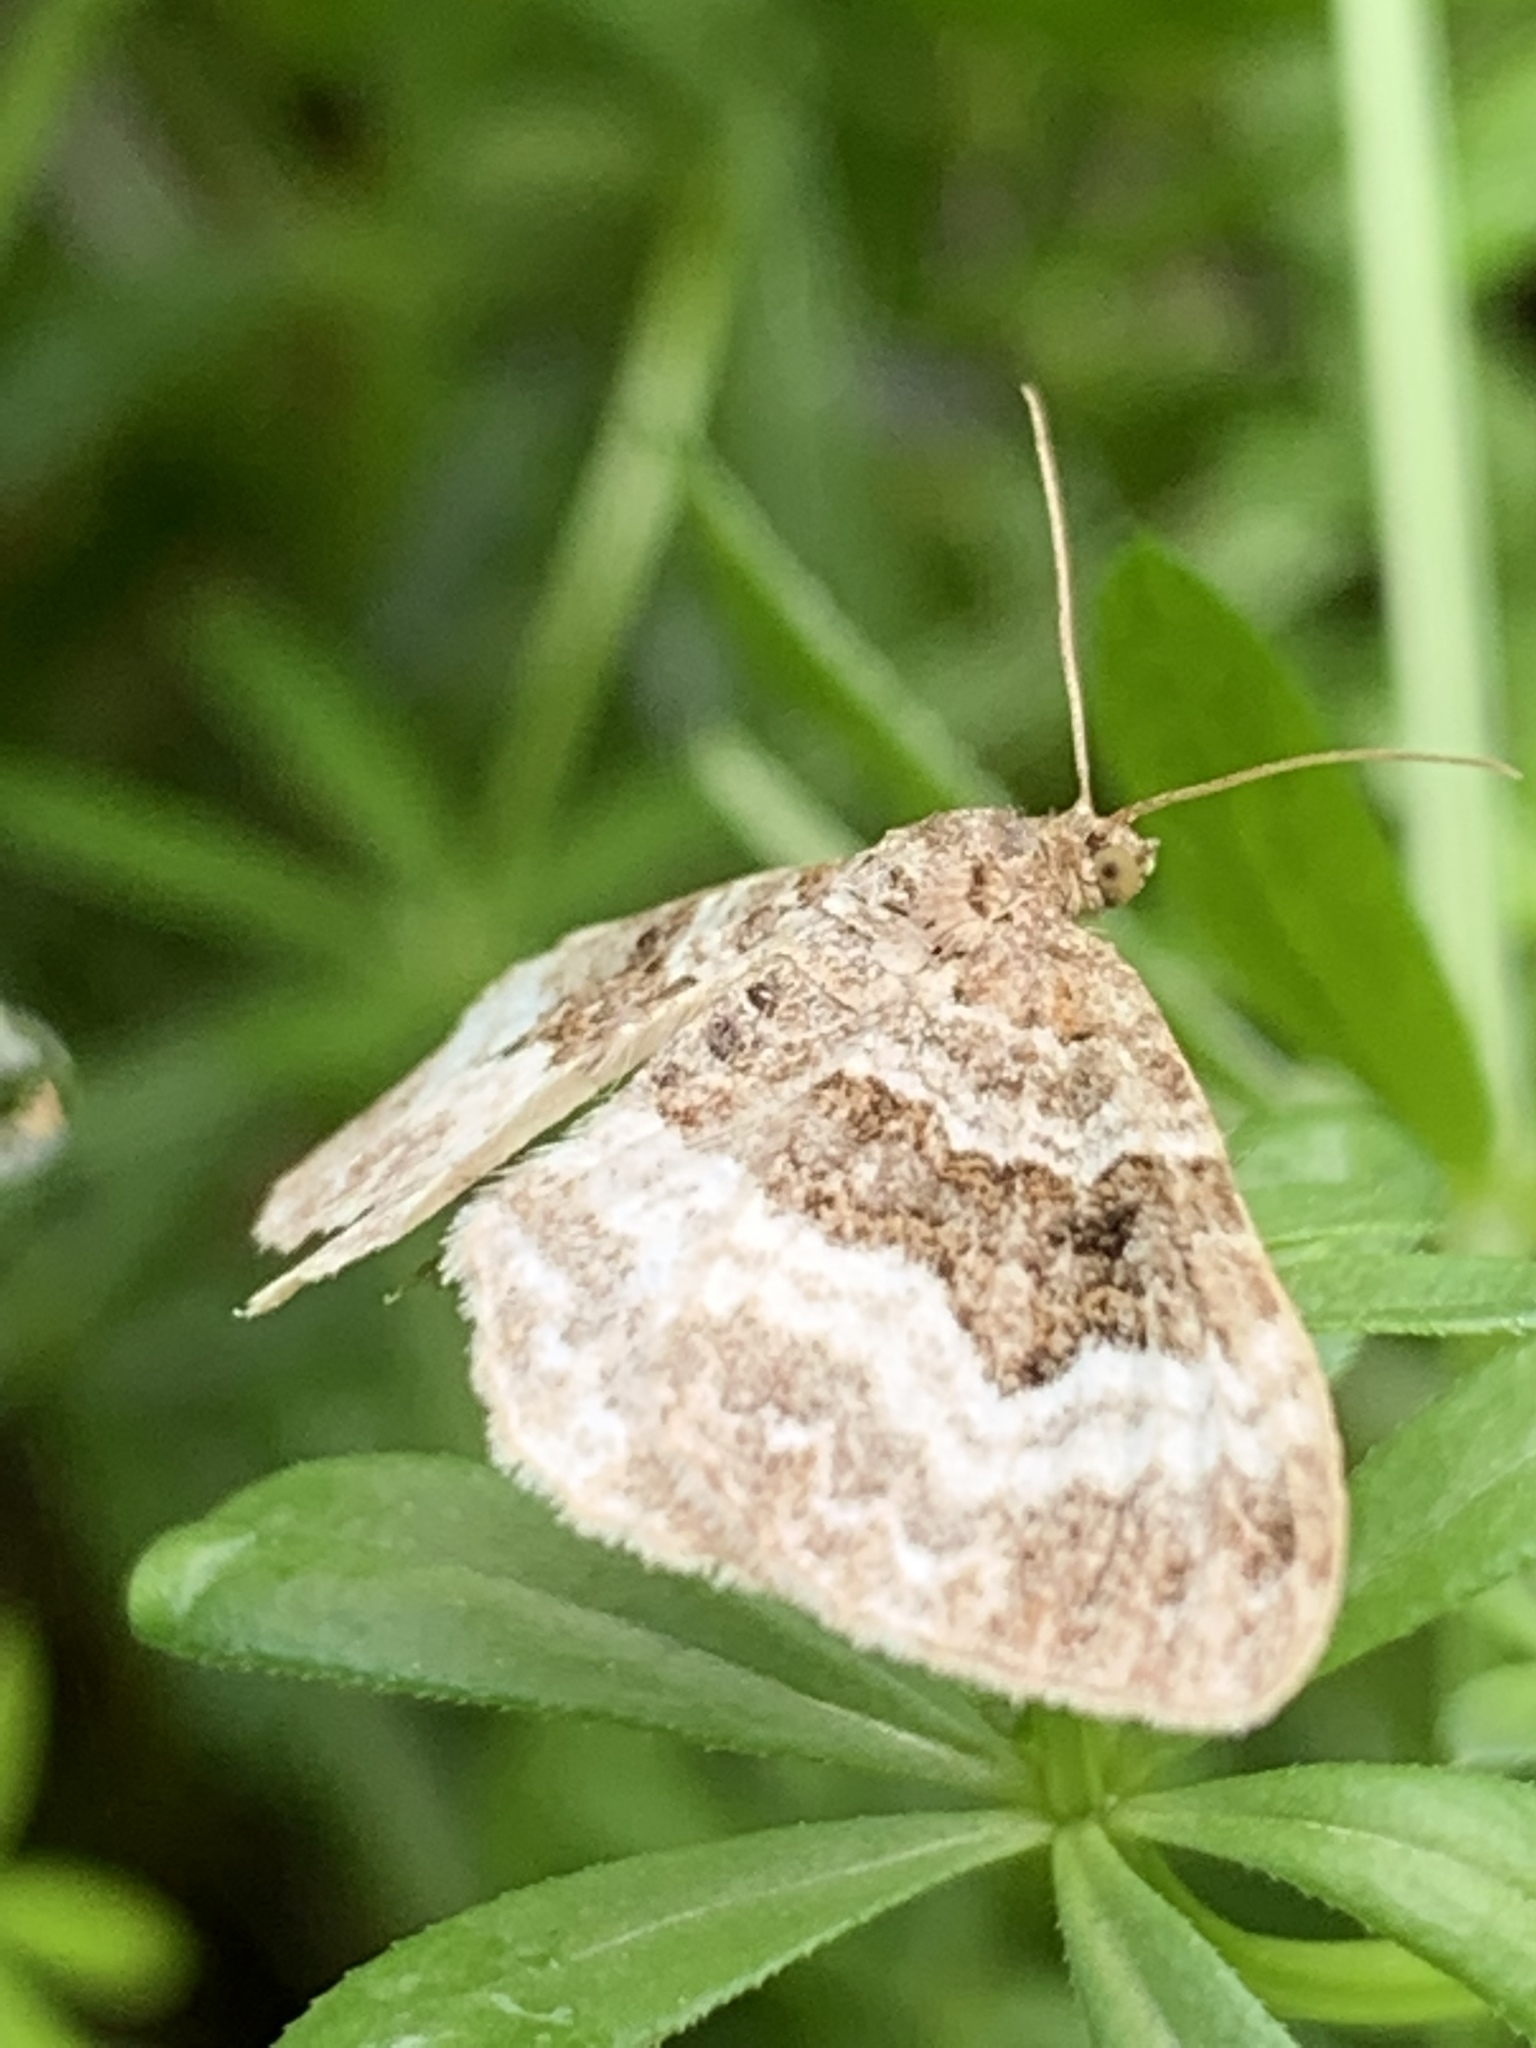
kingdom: Animalia
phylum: Arthropoda
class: Insecta
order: Lepidoptera
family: Geometridae
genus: Epirrhoe
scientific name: Epirrhoe alternata
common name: Common carpet
